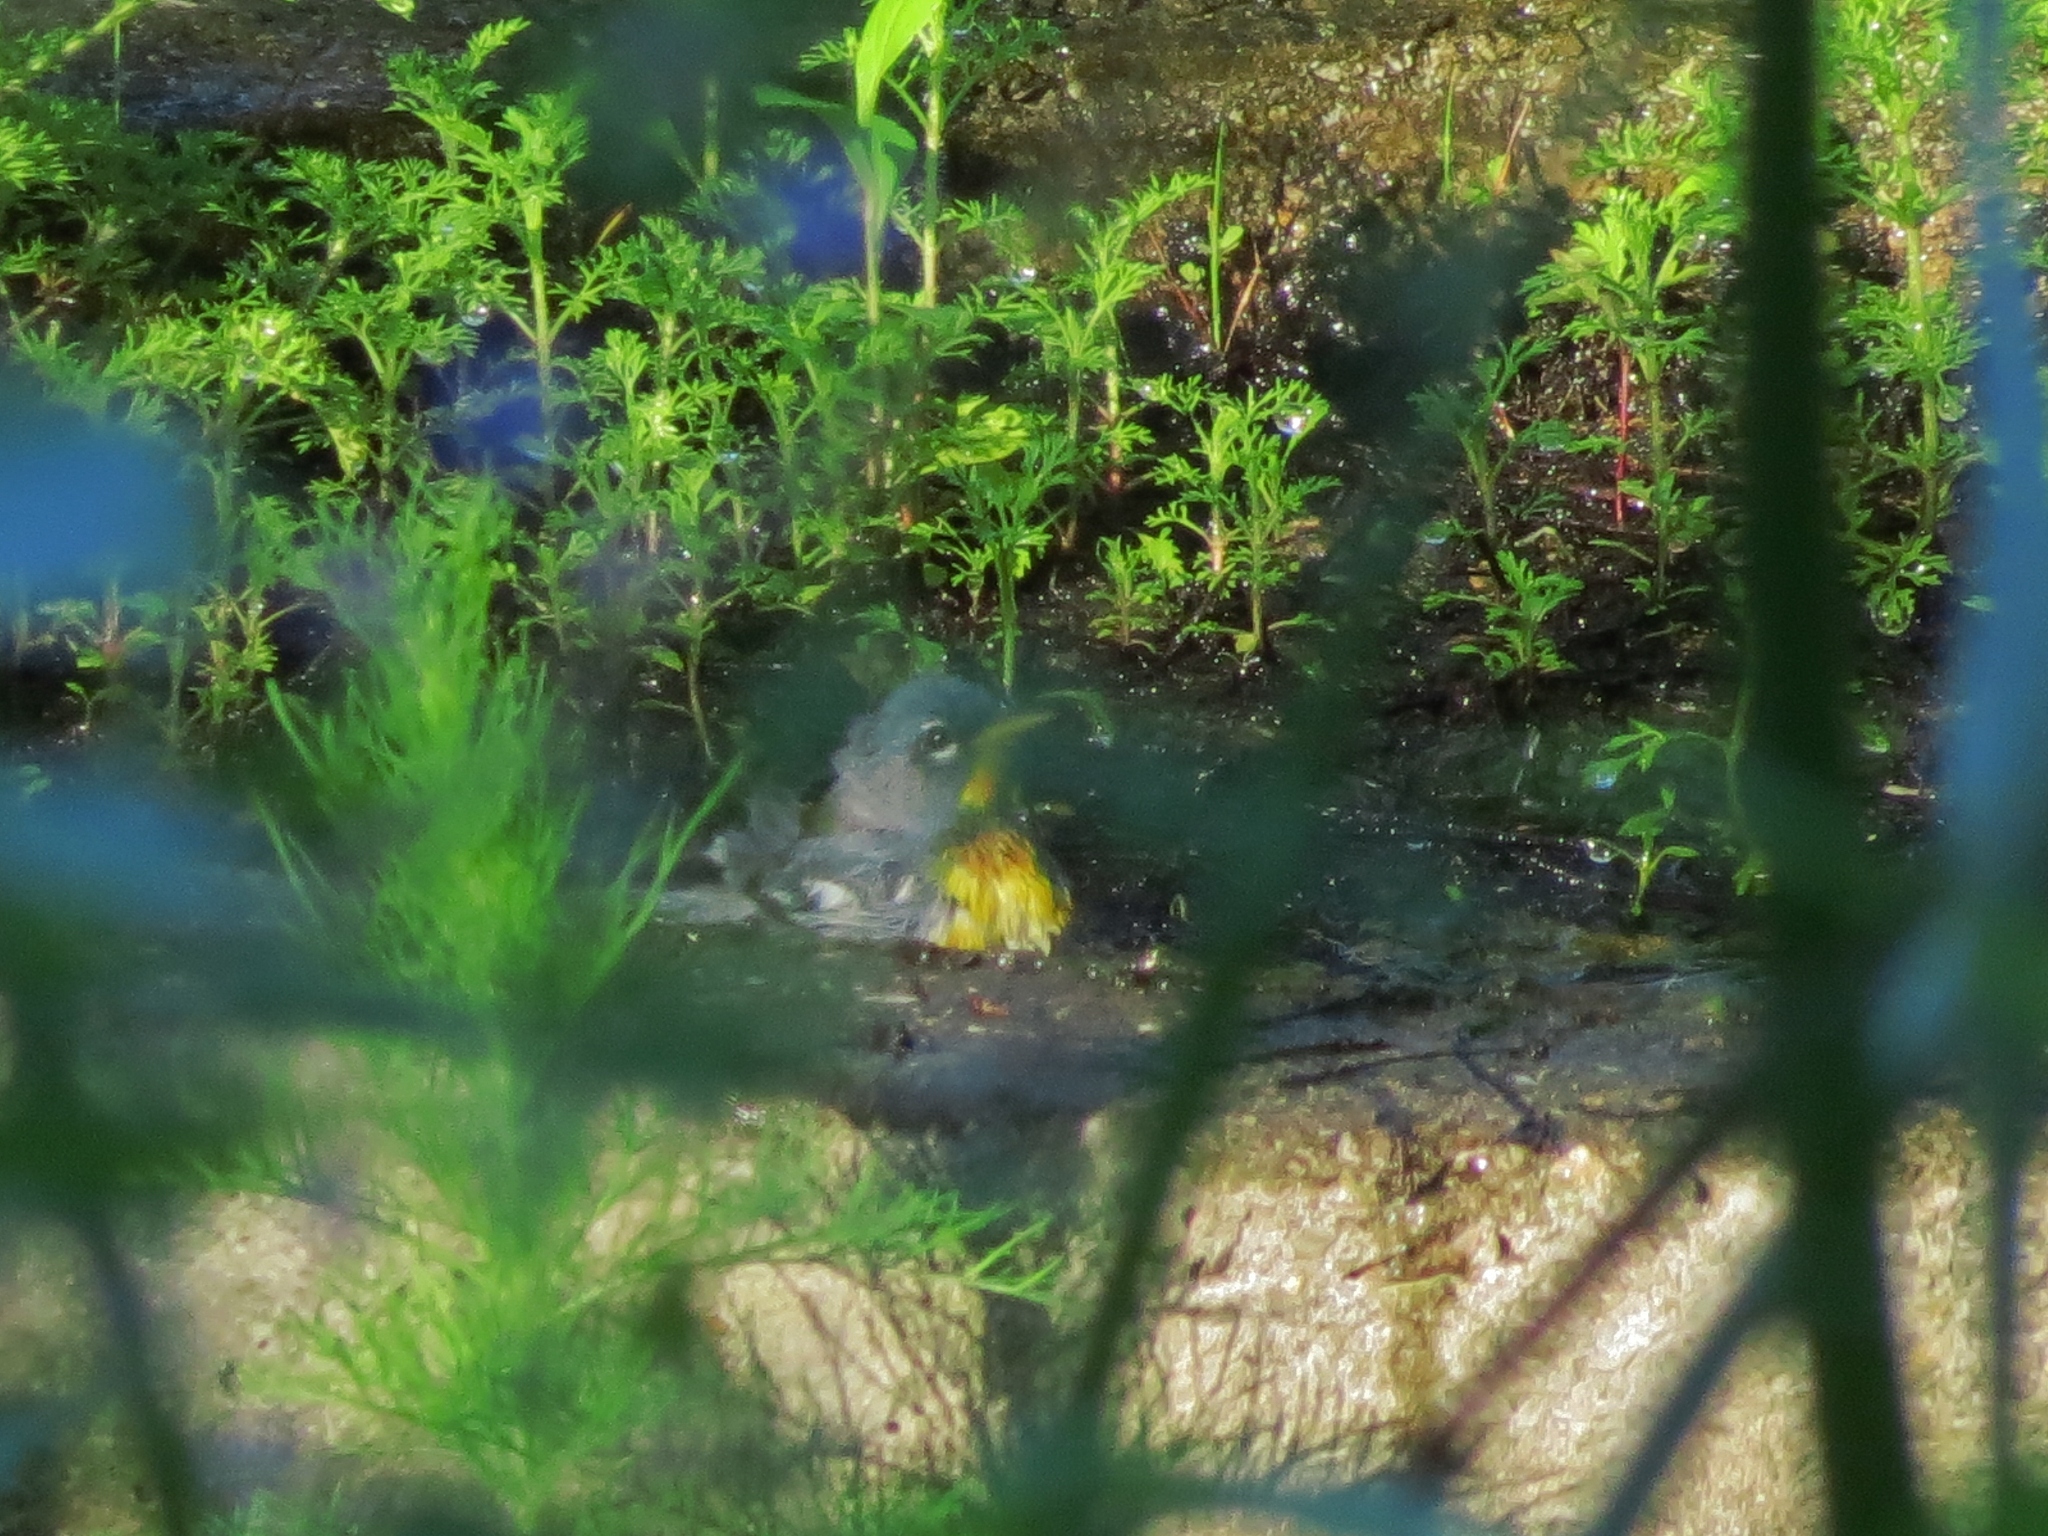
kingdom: Animalia
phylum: Chordata
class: Aves
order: Passeriformes
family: Parulidae
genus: Setophaga
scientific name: Setophaga americana
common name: Northern parula
